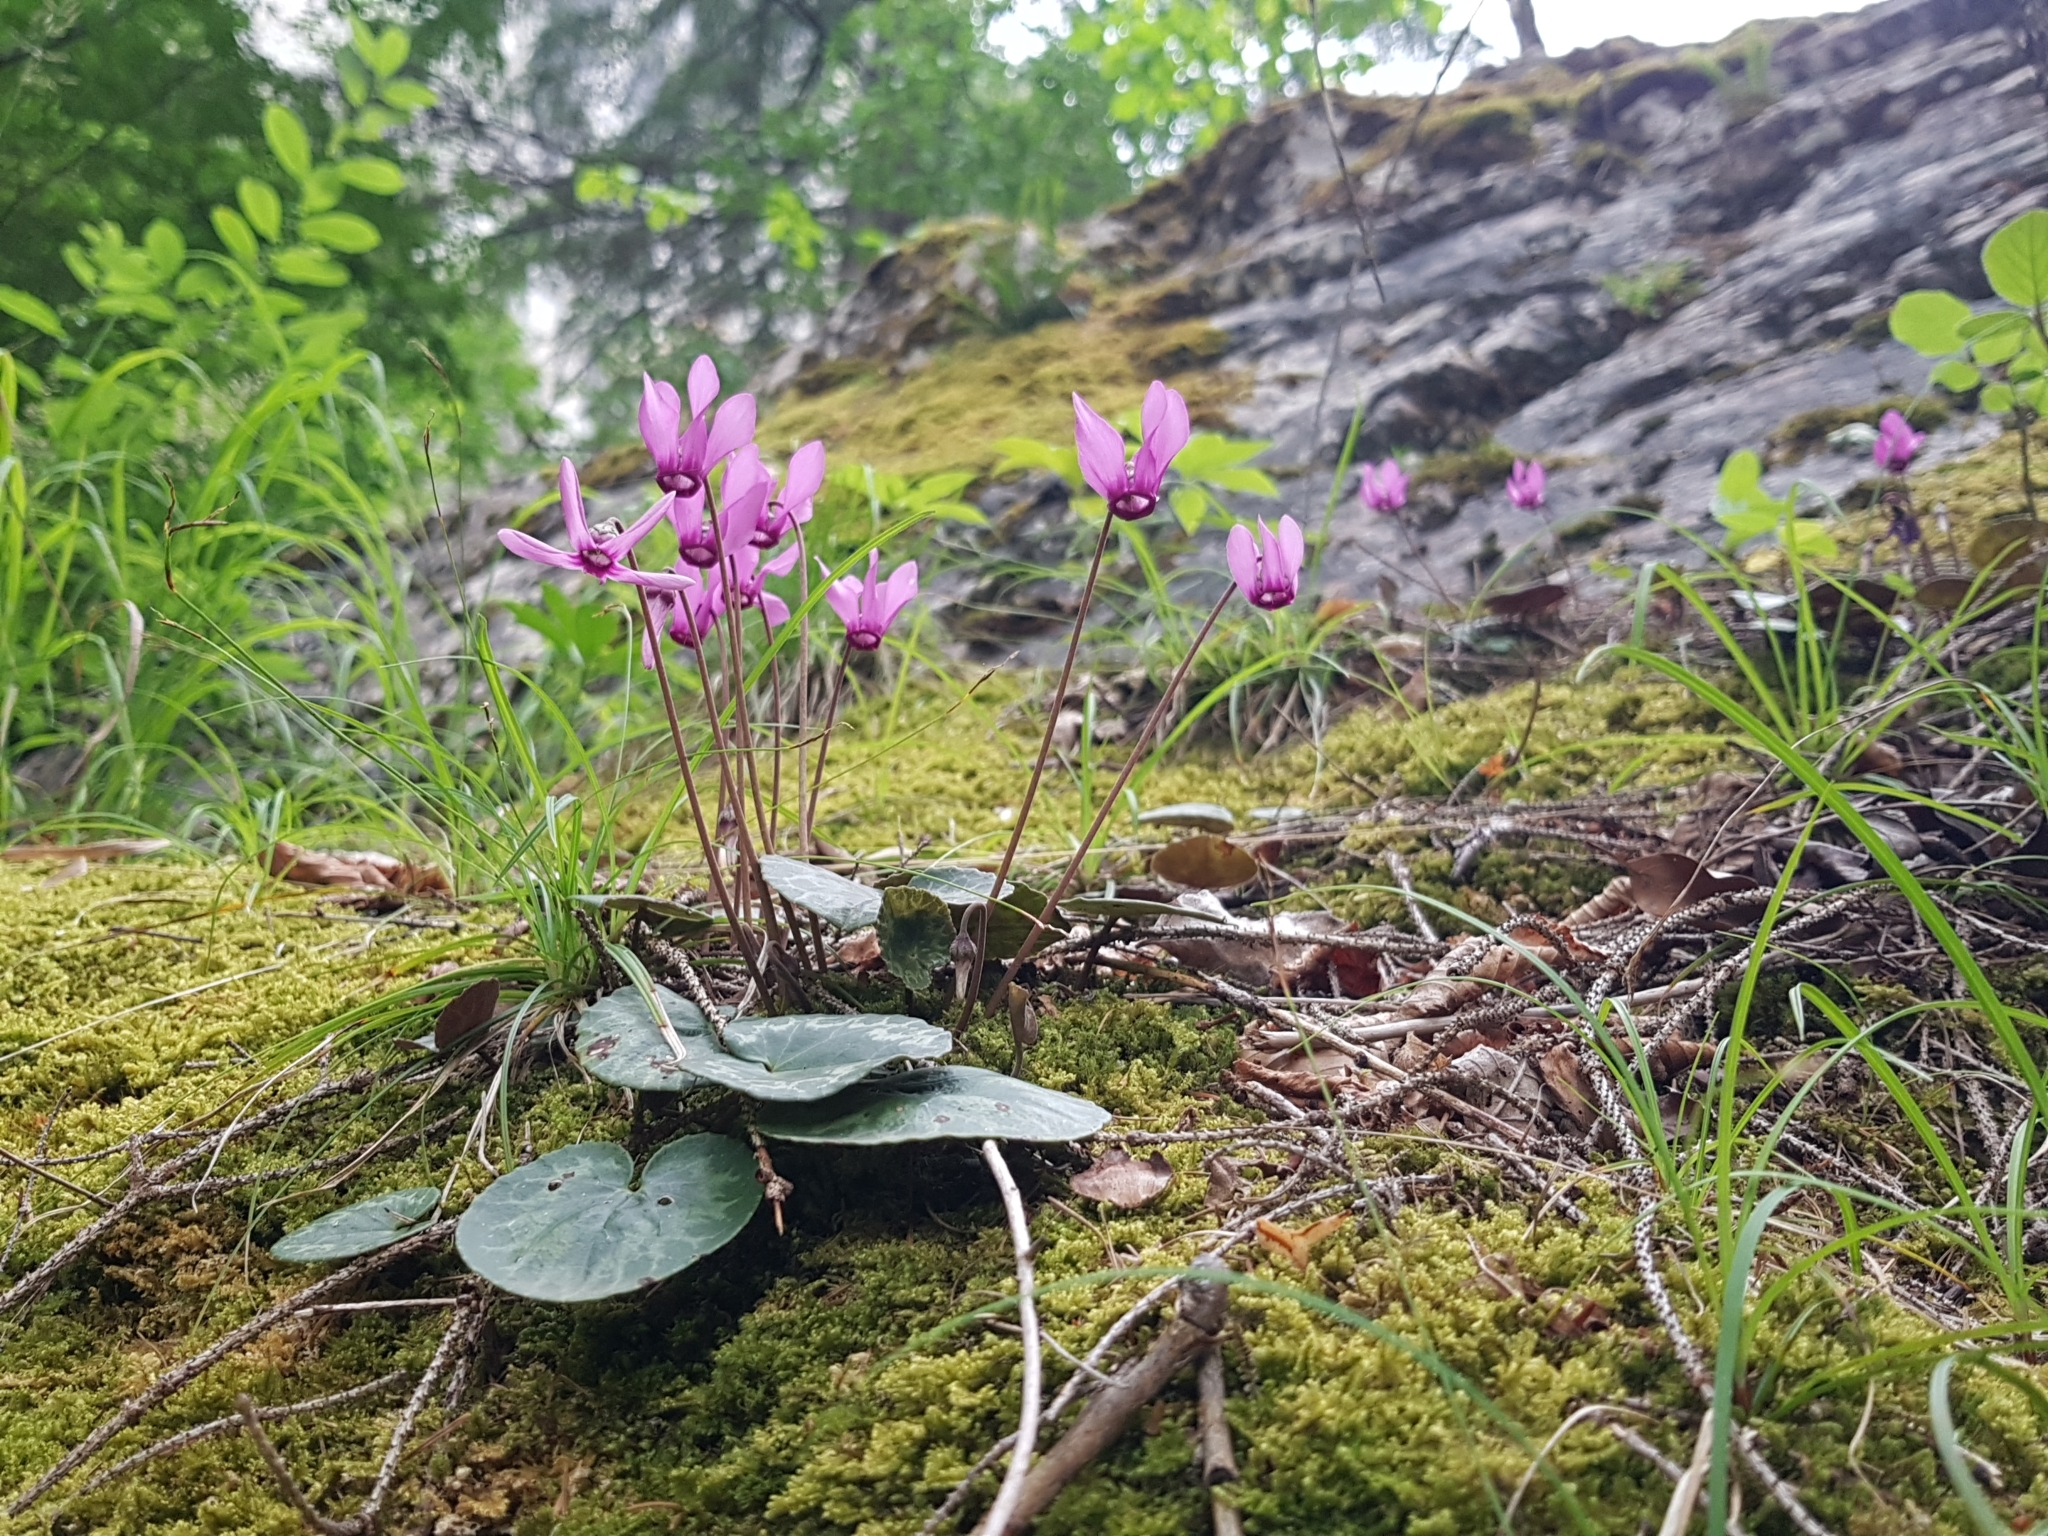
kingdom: Plantae
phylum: Tracheophyta
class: Magnoliopsida
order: Ericales
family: Primulaceae
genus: Cyclamen
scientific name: Cyclamen purpurascens
